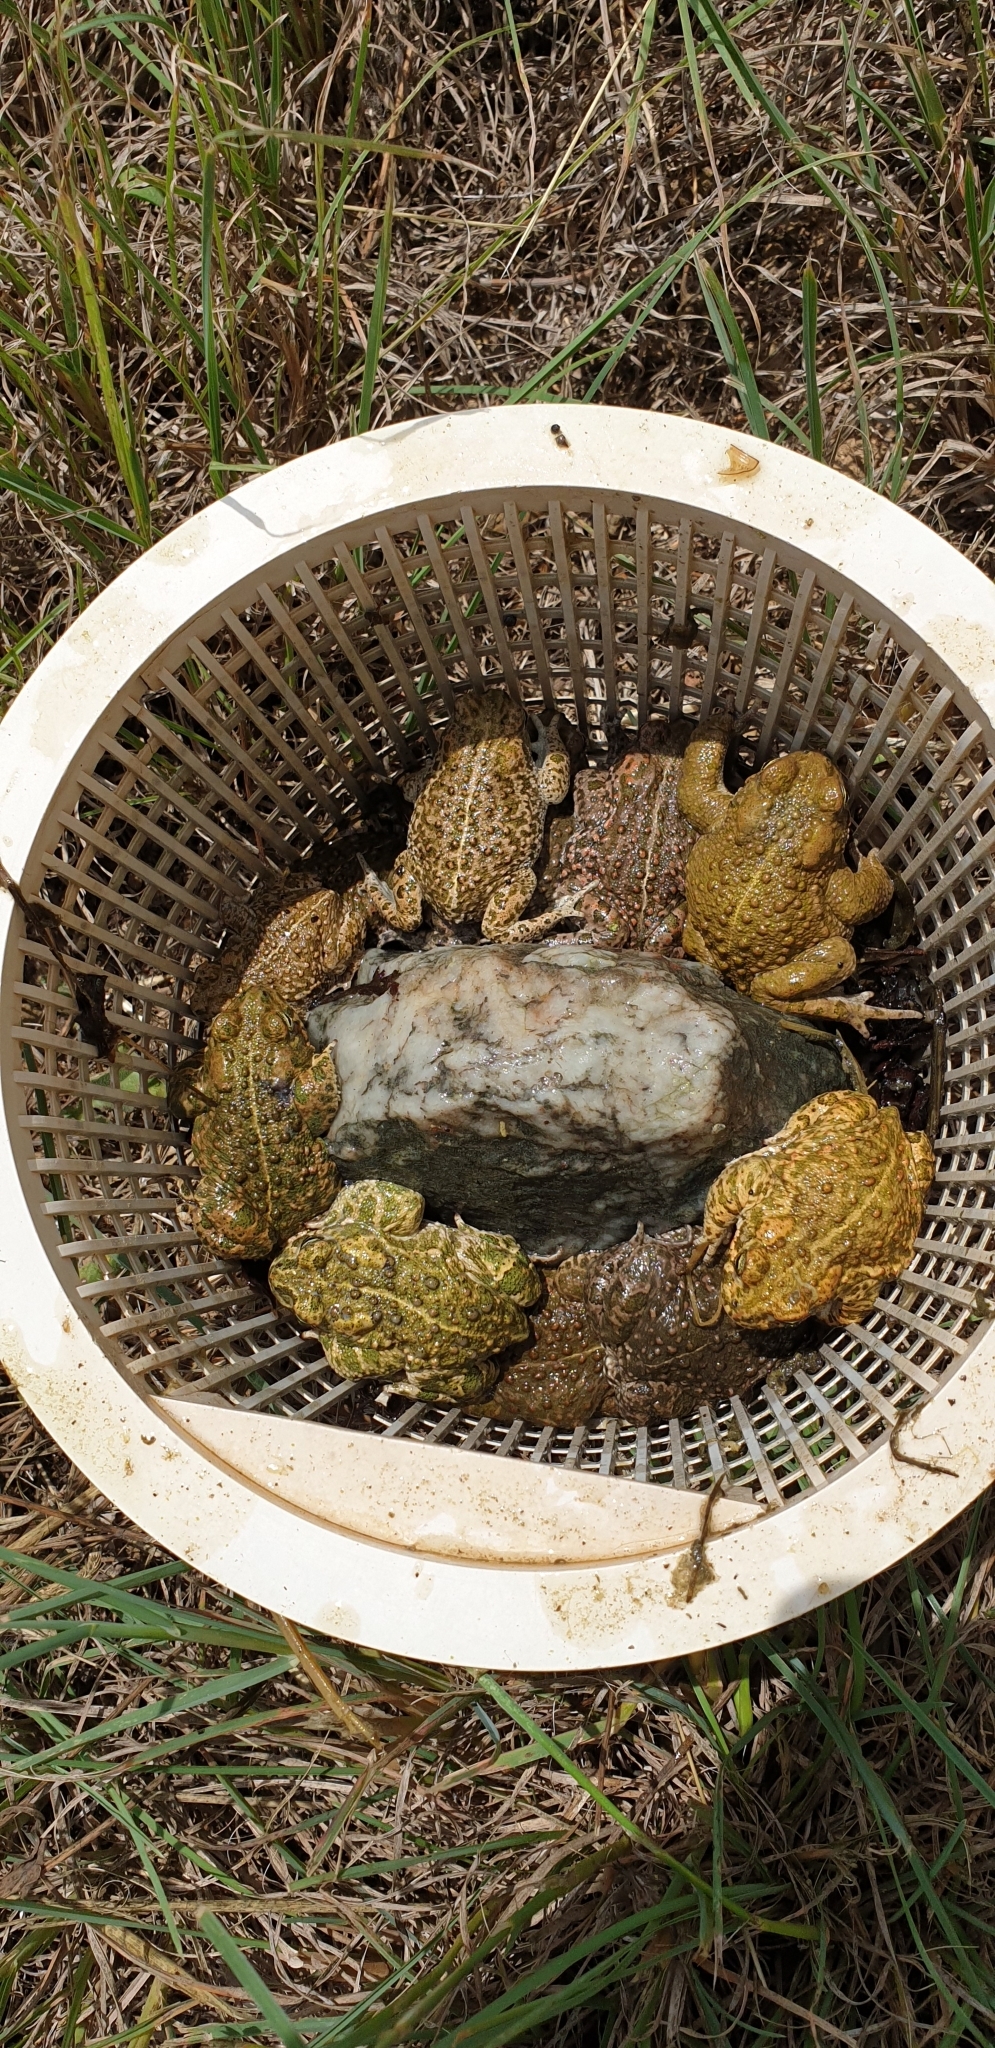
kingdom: Animalia
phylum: Chordata
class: Amphibia
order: Anura
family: Bufonidae
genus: Epidalea
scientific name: Epidalea calamita
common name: Natterjack toad
